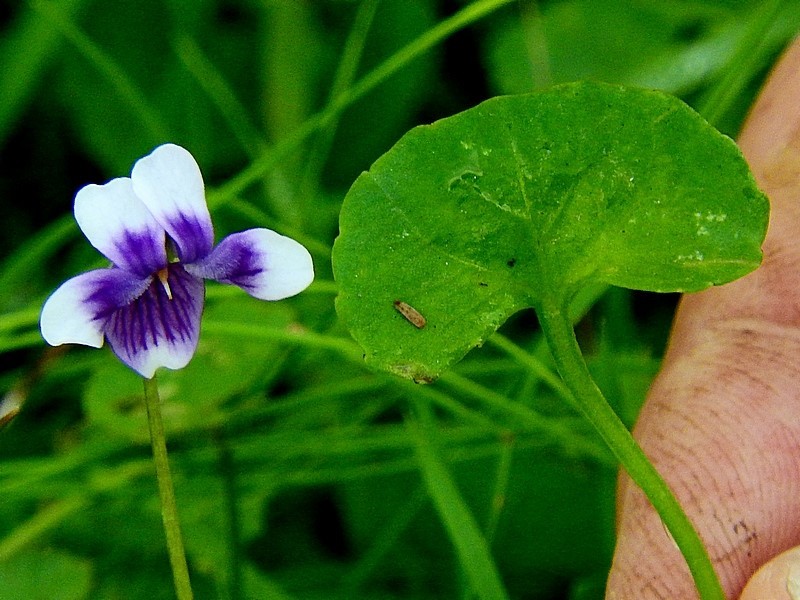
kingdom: Plantae
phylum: Tracheophyta
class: Magnoliopsida
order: Malpighiales
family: Violaceae
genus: Viola
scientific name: Viola banksii
